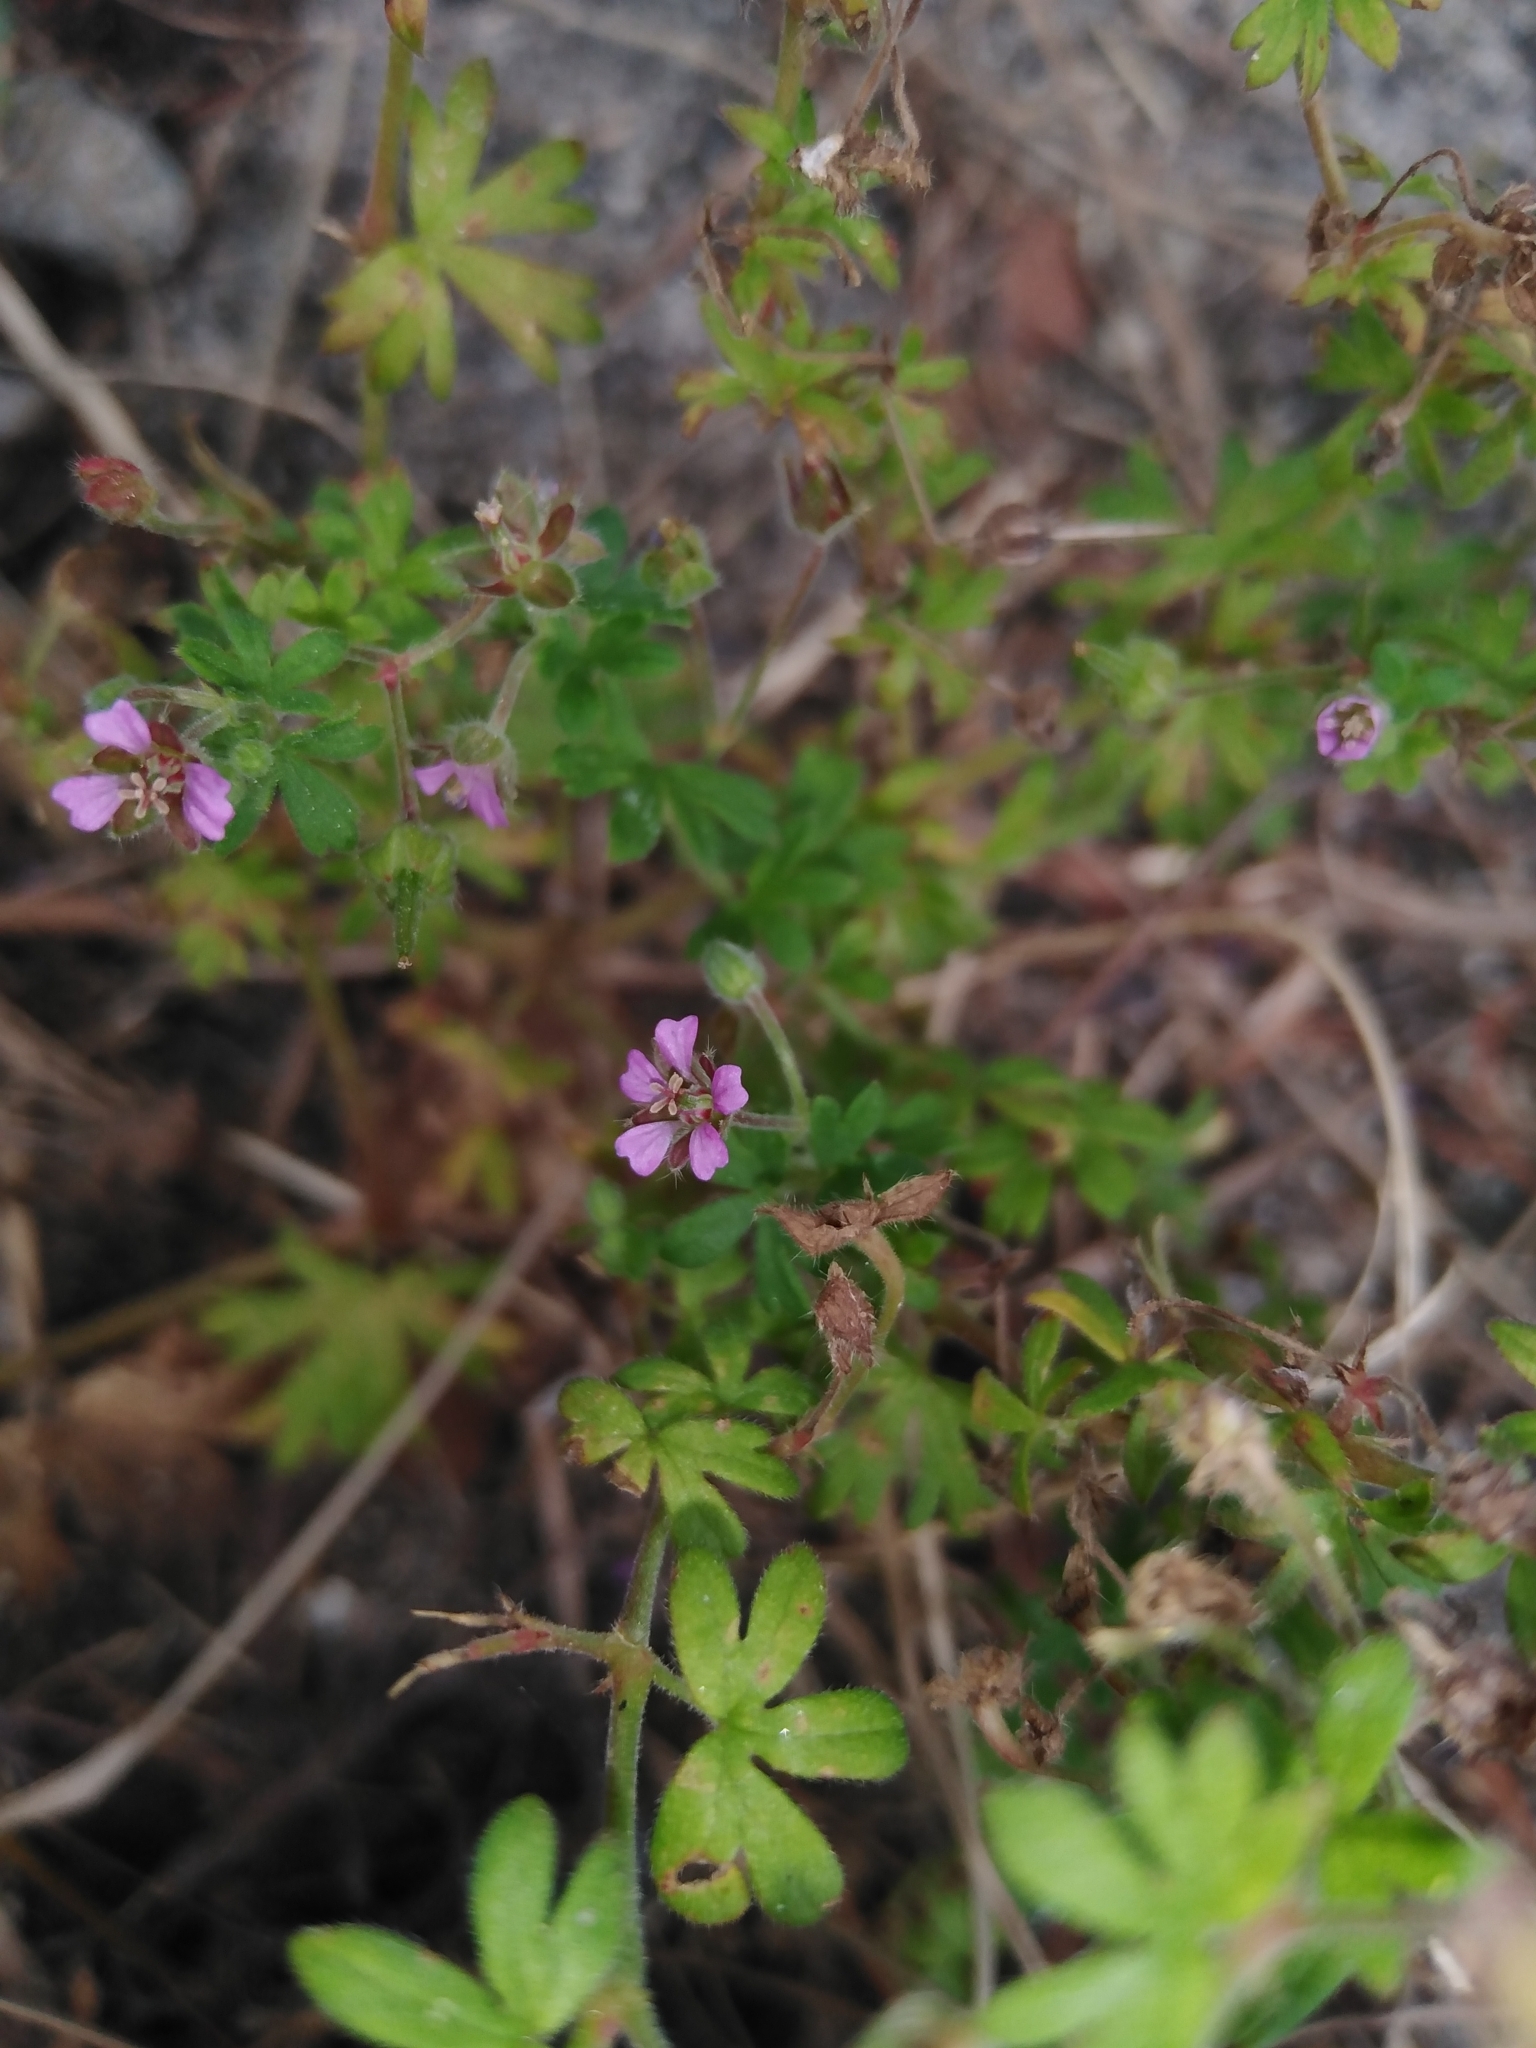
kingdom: Plantae
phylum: Tracheophyta
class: Magnoliopsida
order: Geraniales
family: Geraniaceae
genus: Geranium
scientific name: Geranium pusillum
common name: Small geranium
